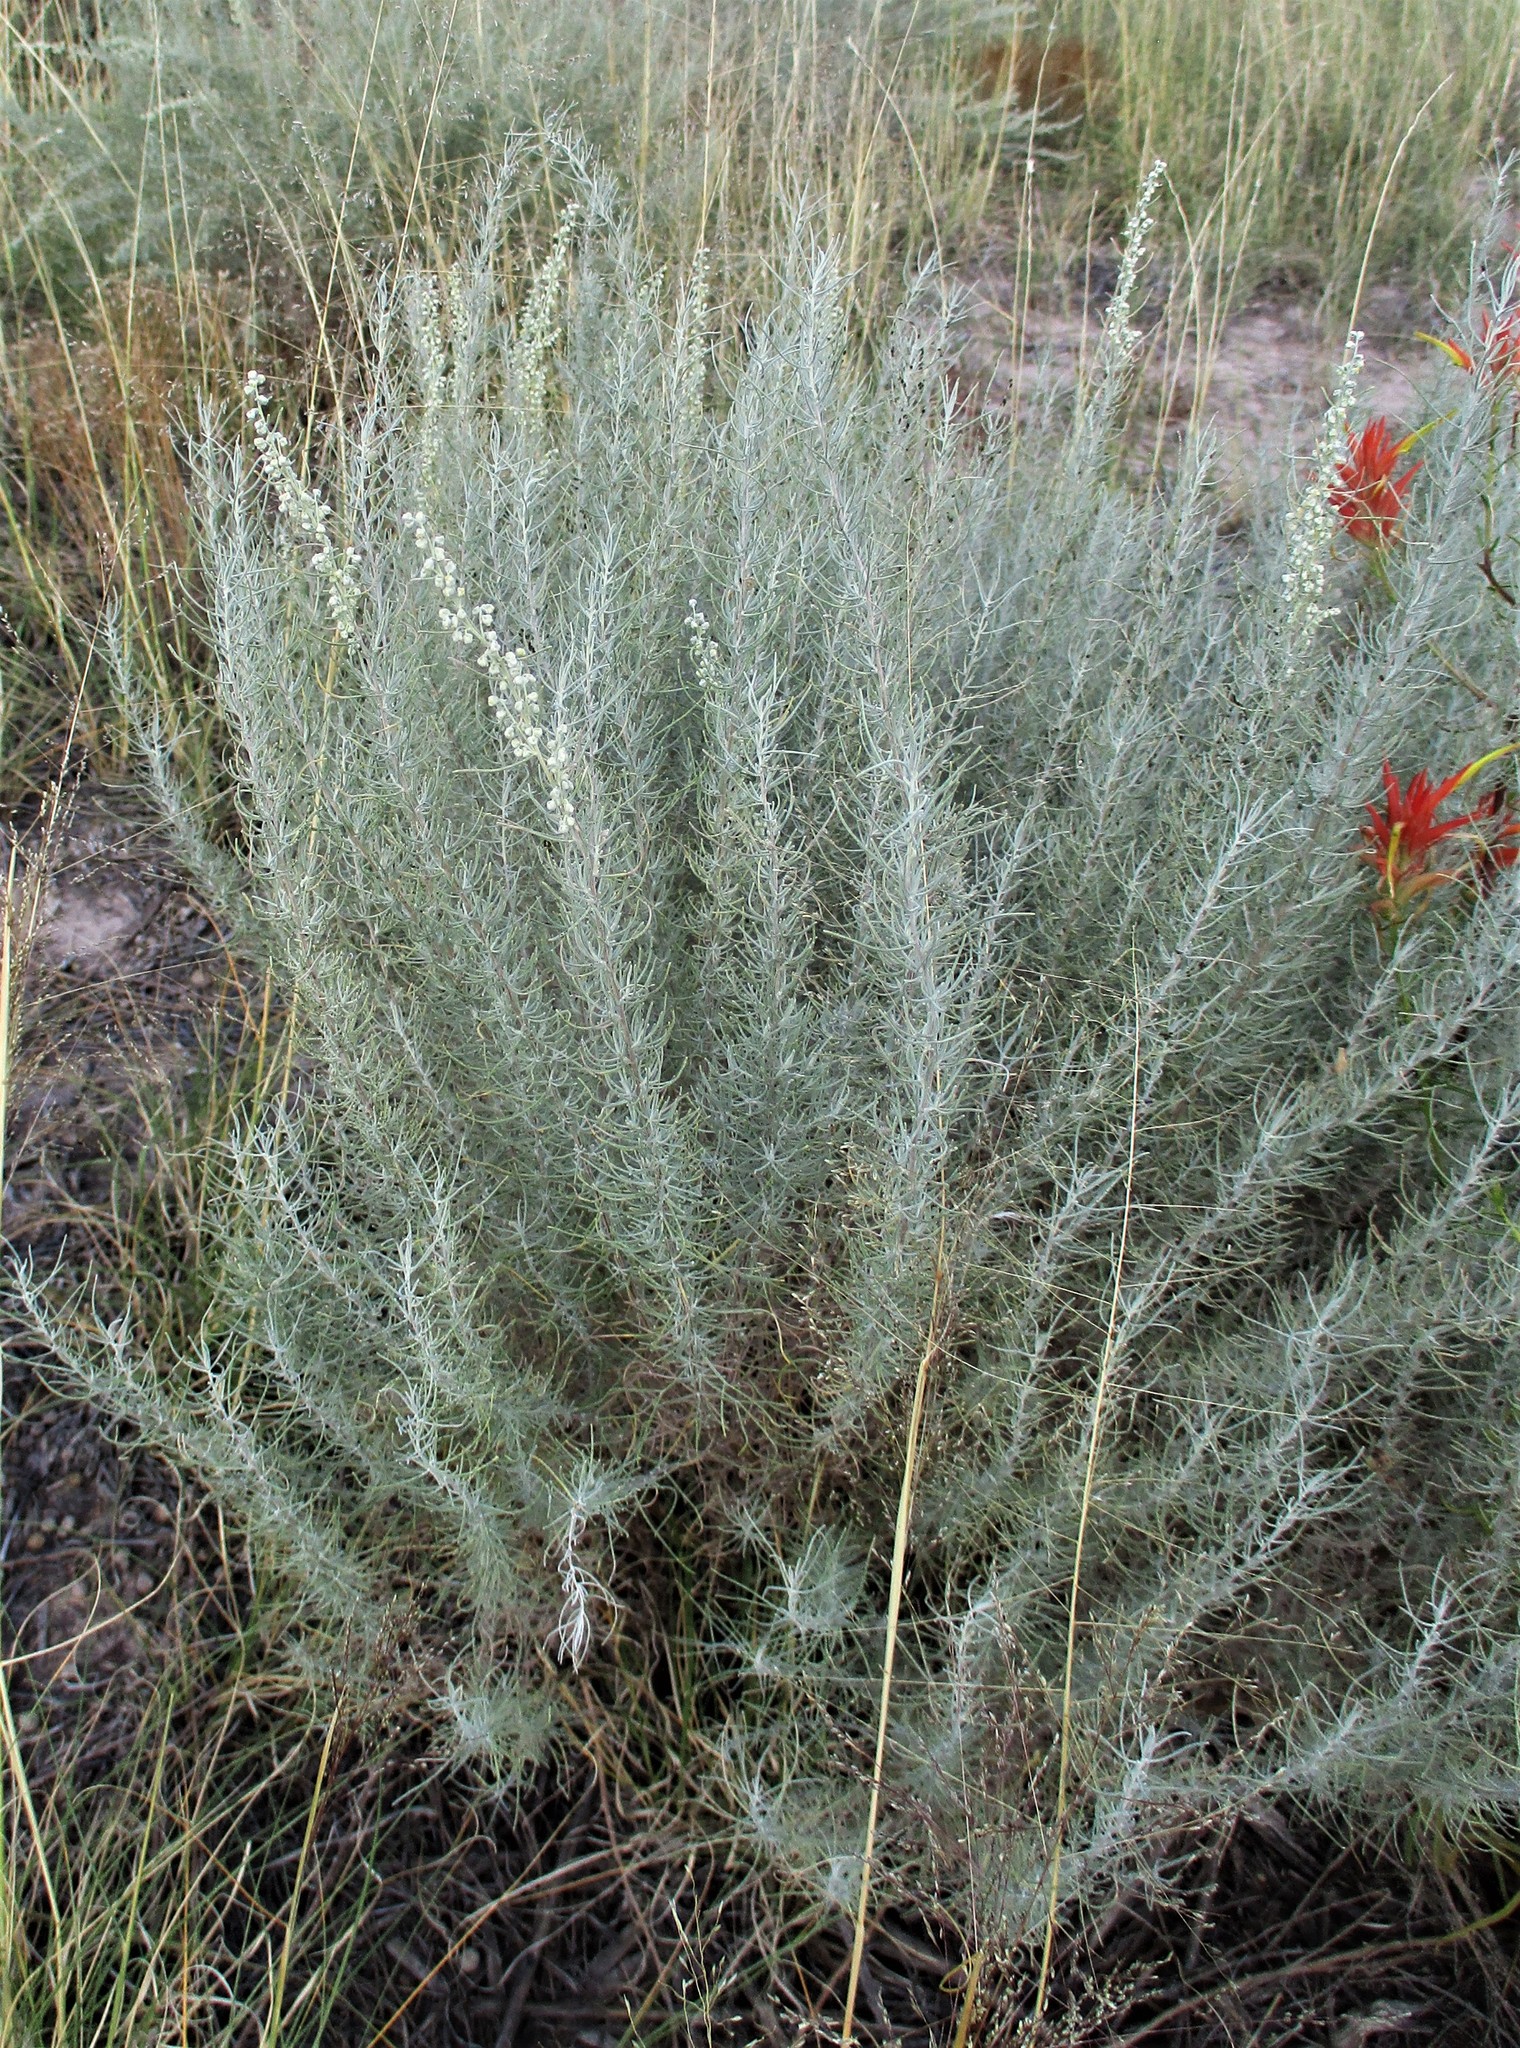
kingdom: Plantae
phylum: Tracheophyta
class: Magnoliopsida
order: Asterales
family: Asteraceae
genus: Artemisia
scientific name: Artemisia filifolia
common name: Sand-sage
